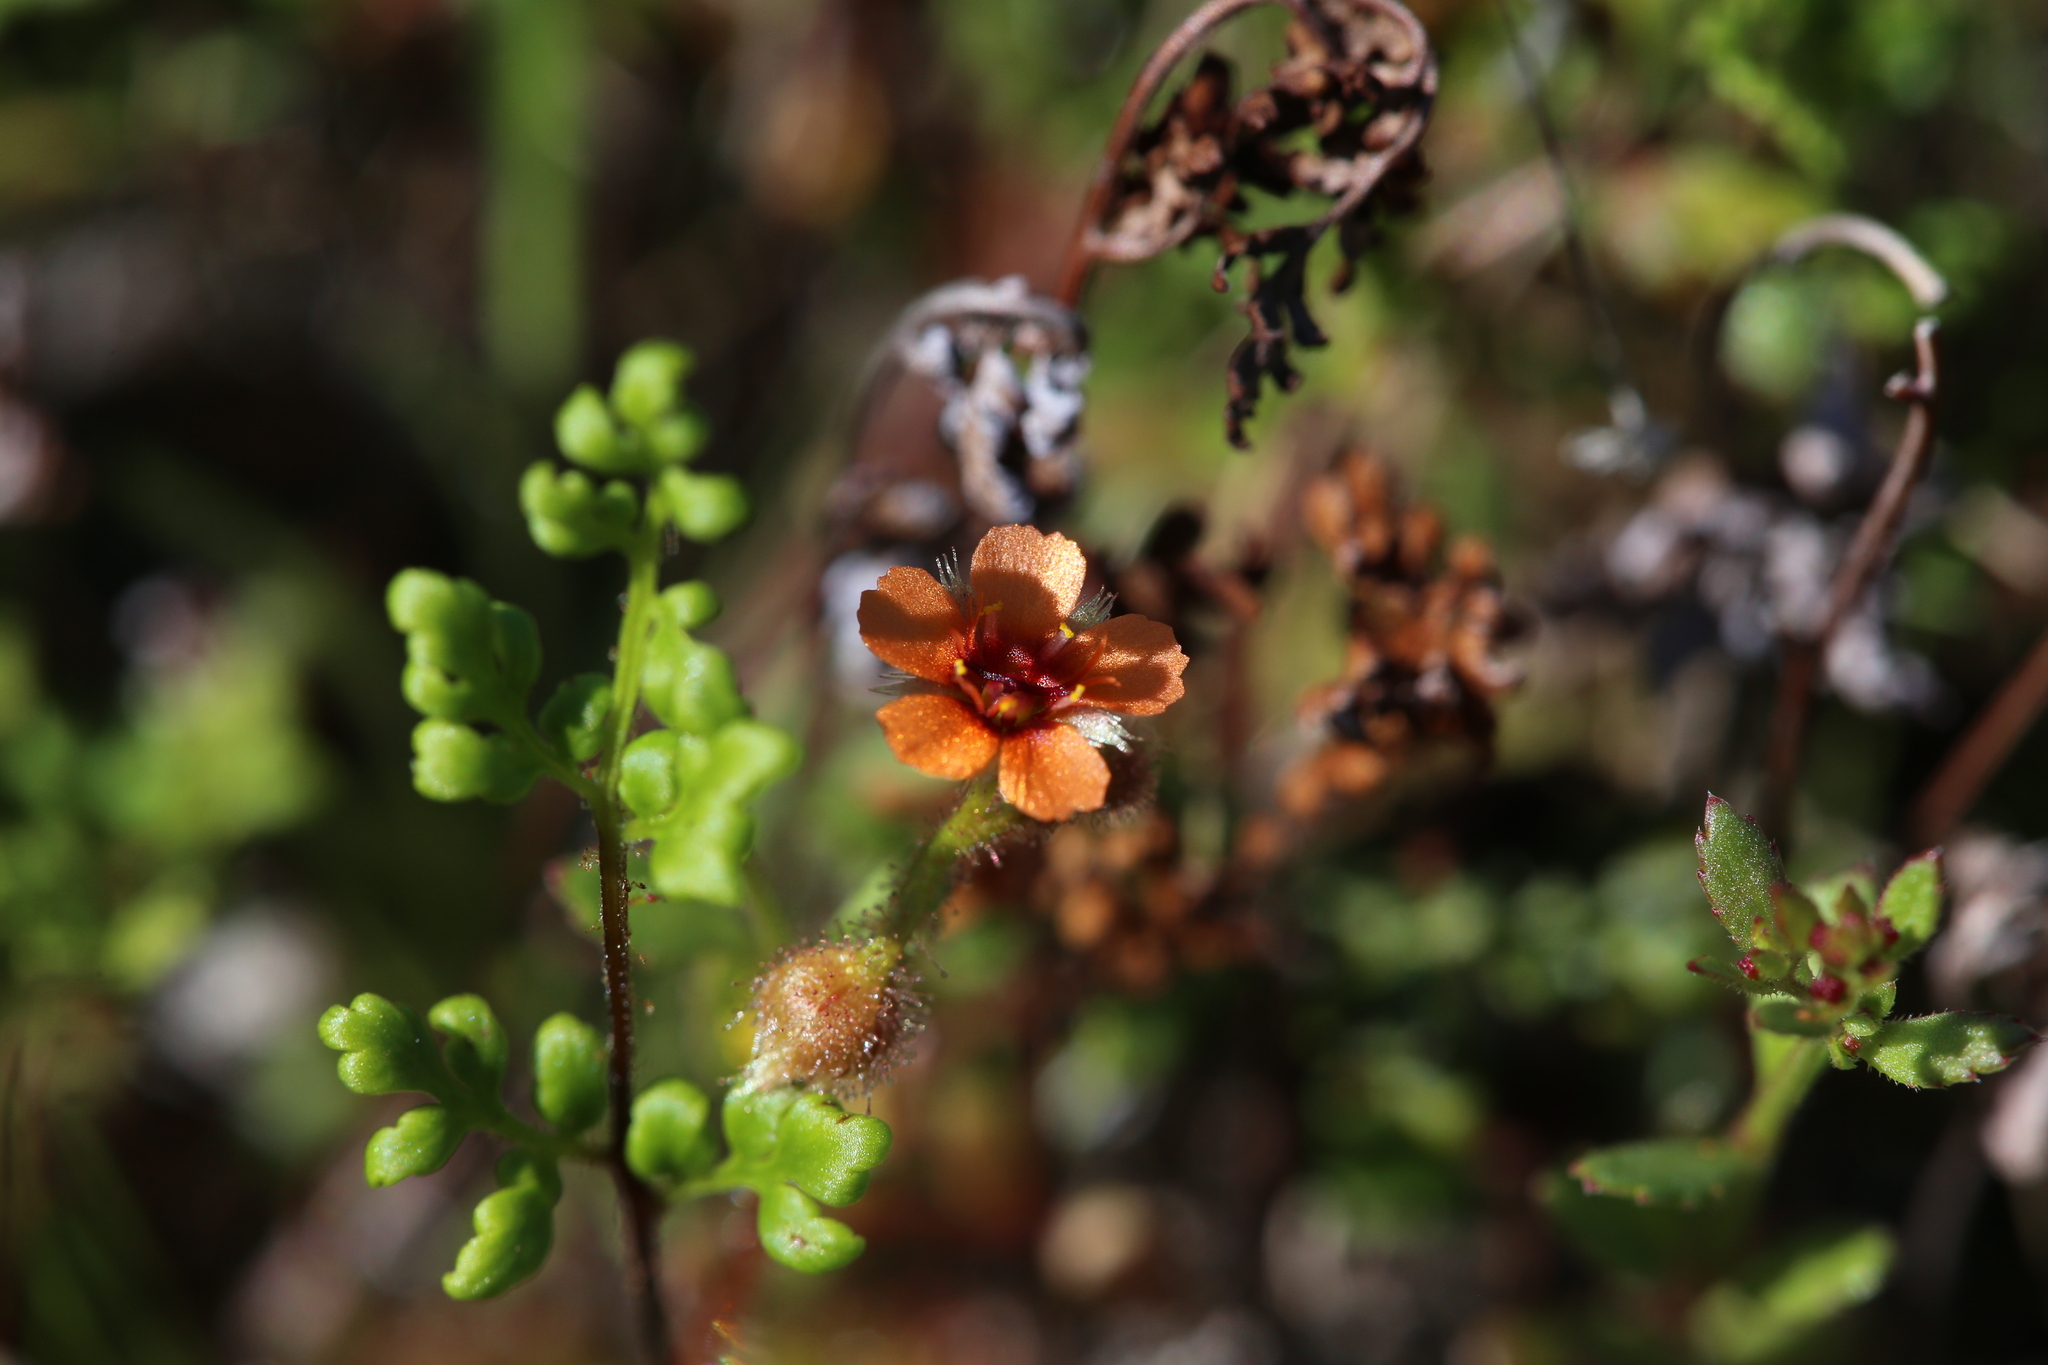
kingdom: Plantae
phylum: Tracheophyta
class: Magnoliopsida
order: Caryophyllales
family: Droseraceae
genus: Drosera
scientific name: Drosera glanduligera
